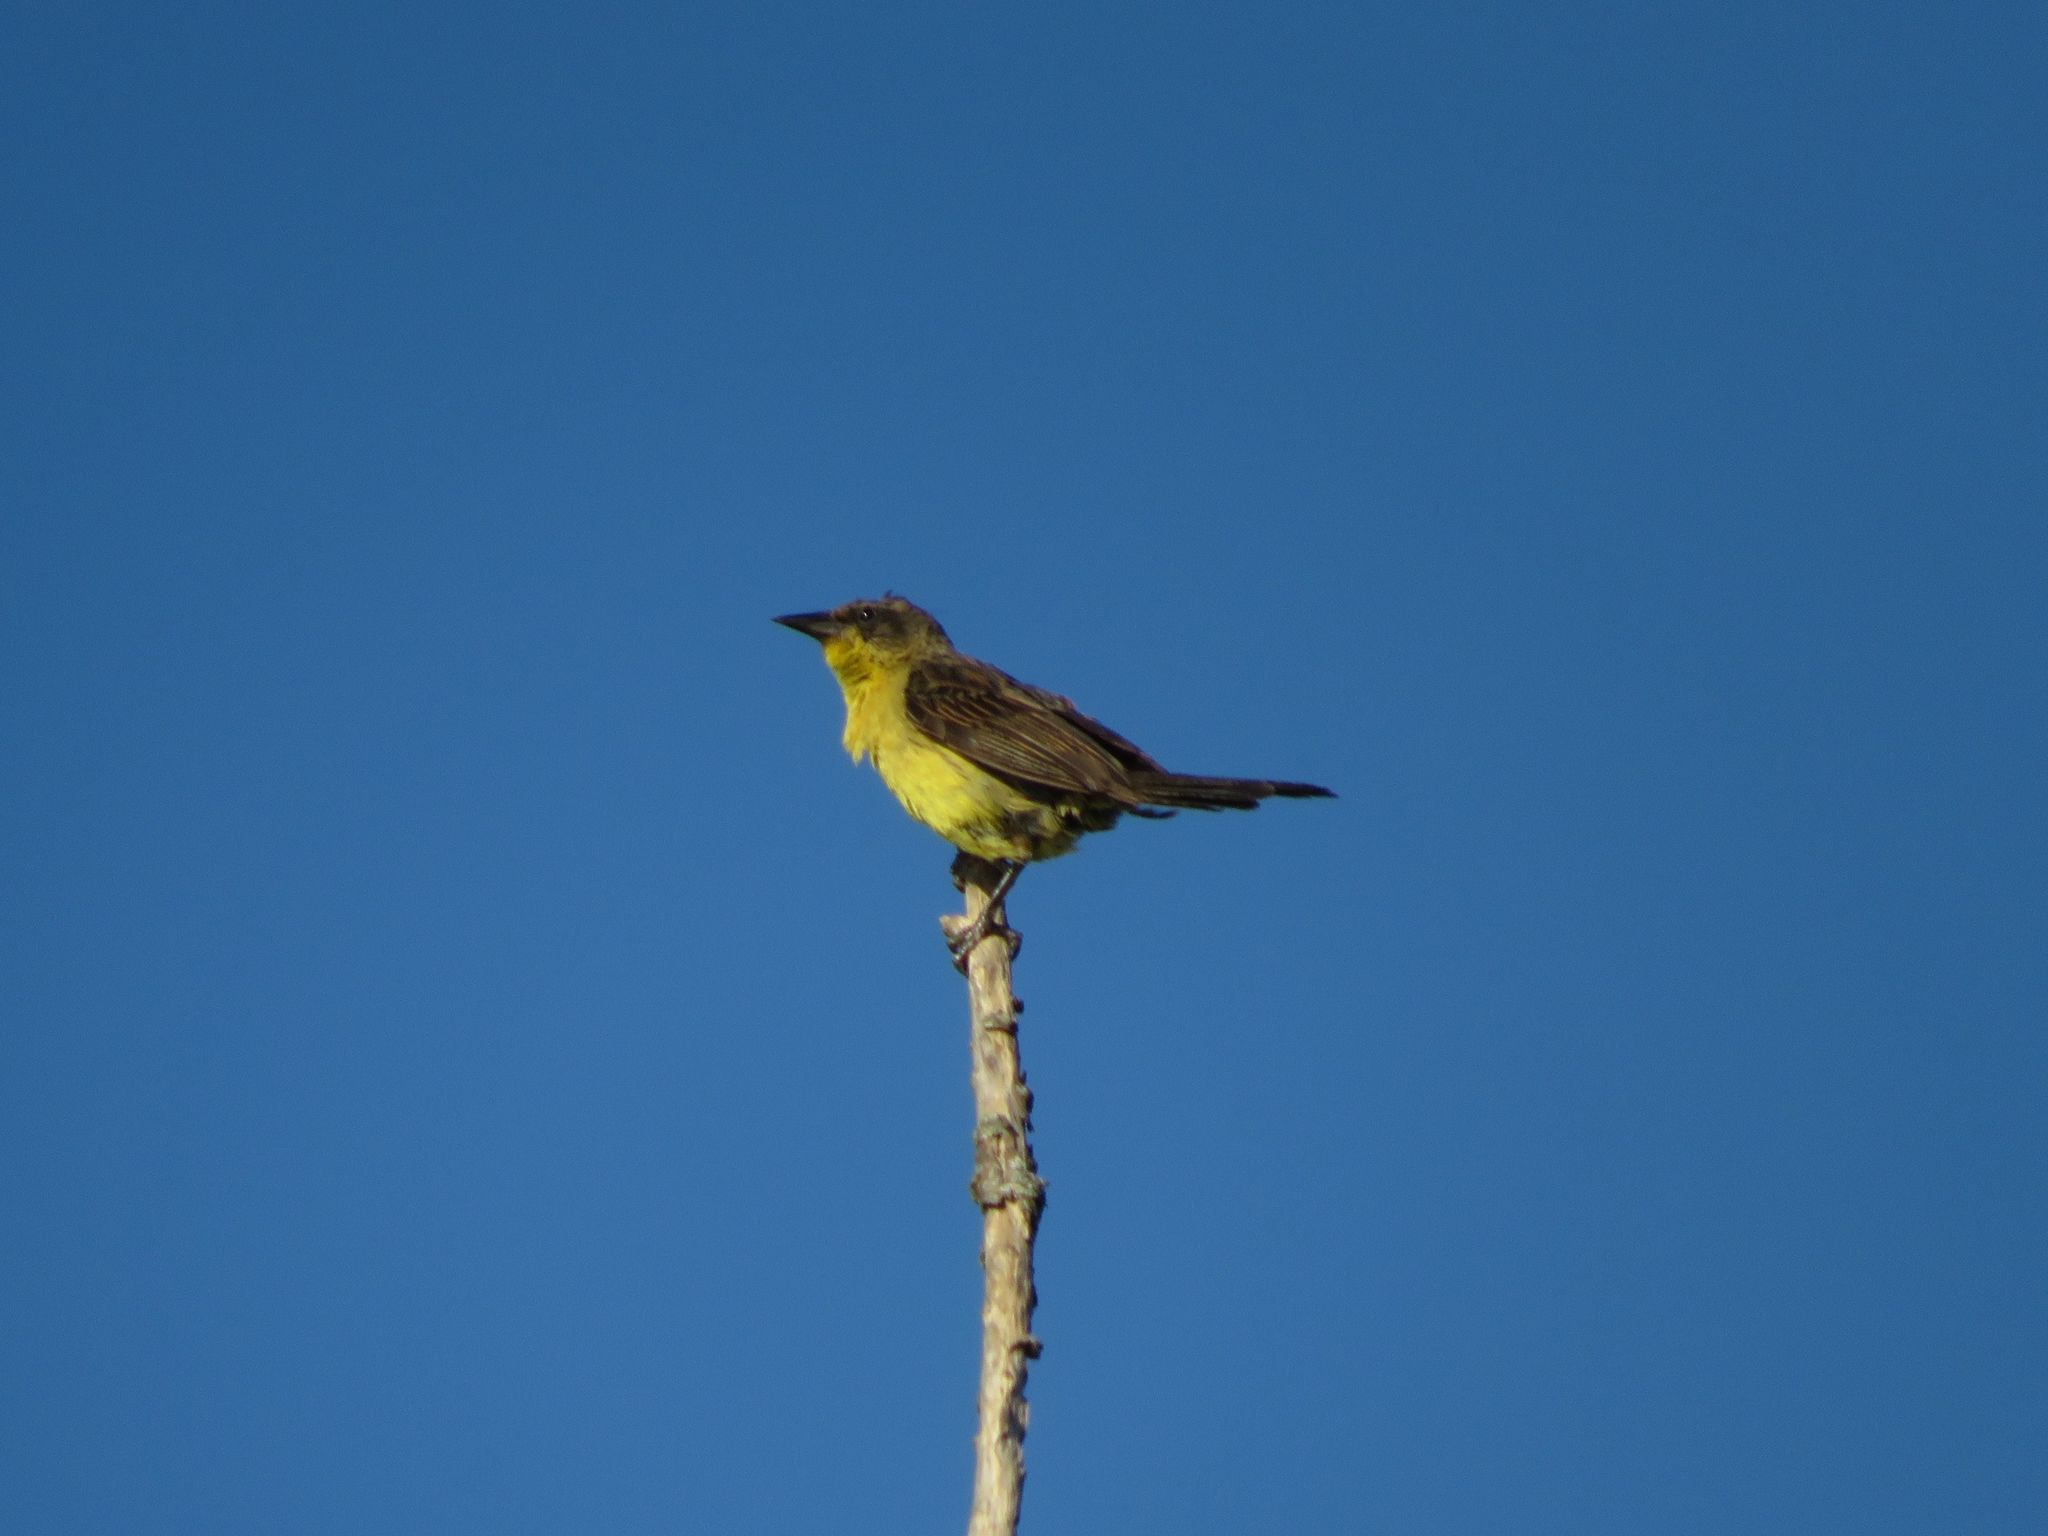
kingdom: Animalia
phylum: Chordata
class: Aves
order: Passeriformes
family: Icteridae
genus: Agelasticus
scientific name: Agelasticus cyanopus
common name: Unicolored blackbird
